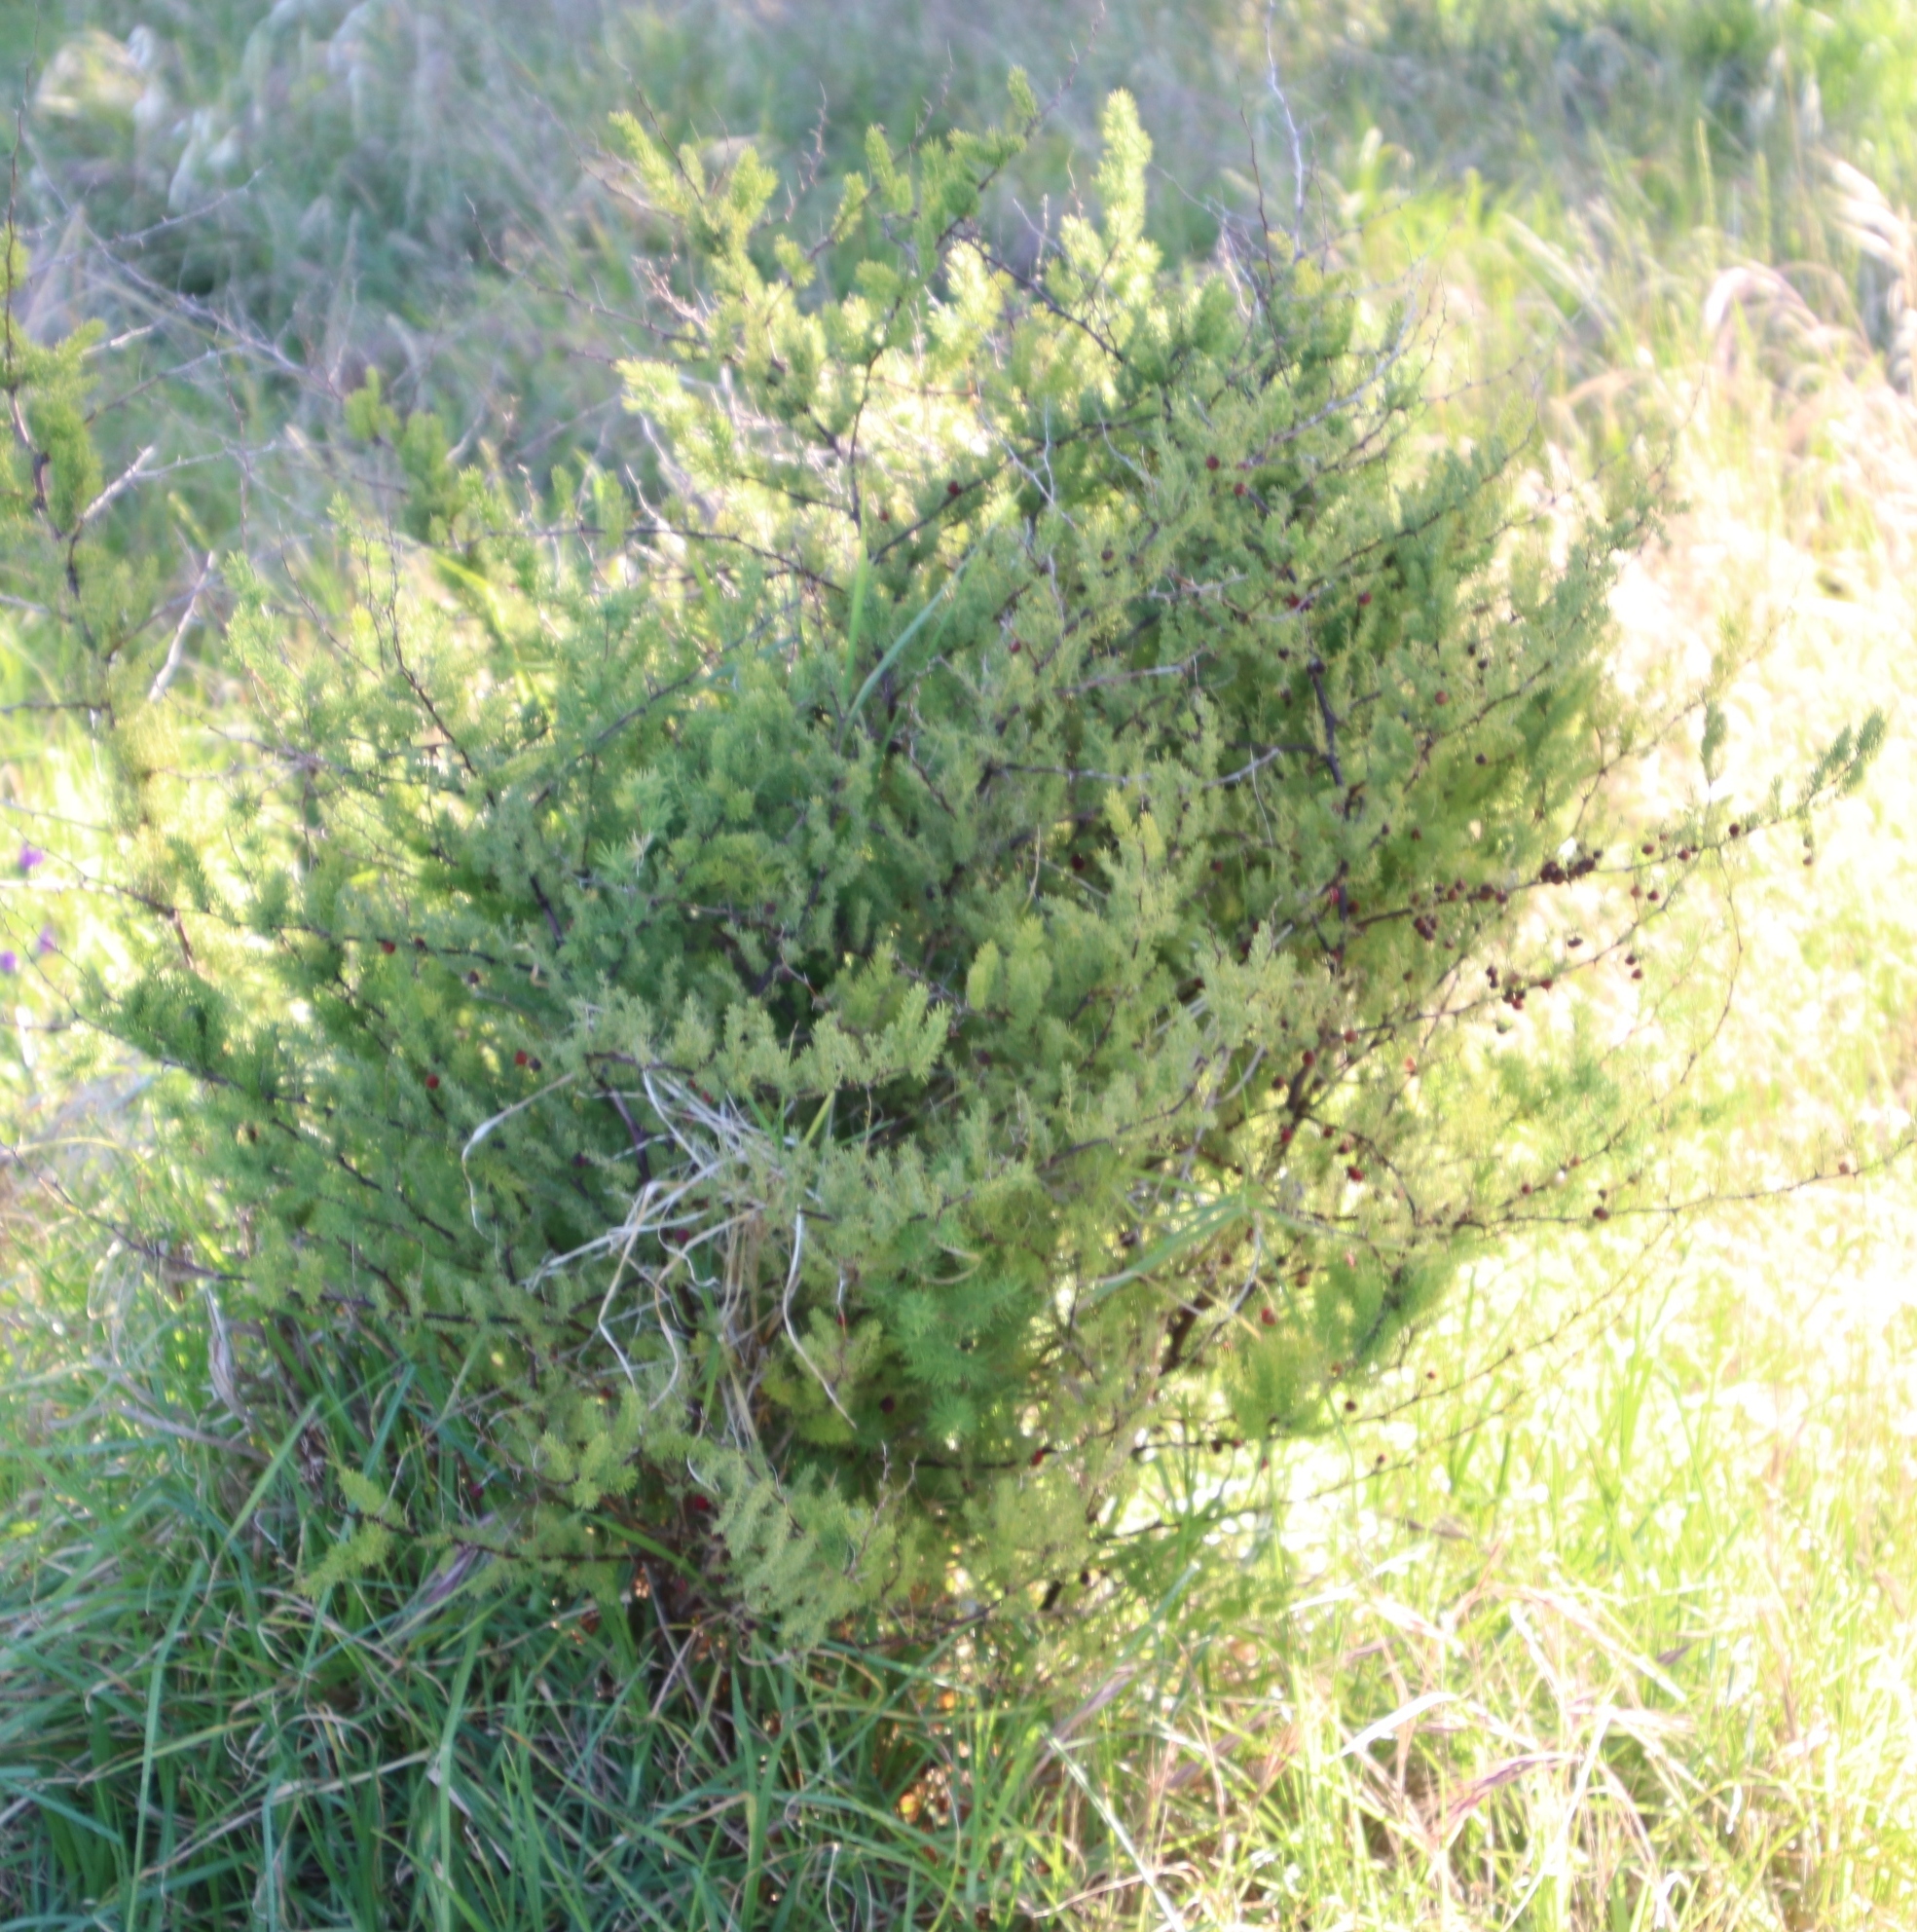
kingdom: Plantae
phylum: Tracheophyta
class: Liliopsida
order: Asparagales
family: Asparagaceae
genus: Asparagus
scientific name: Asparagus rubicundus
